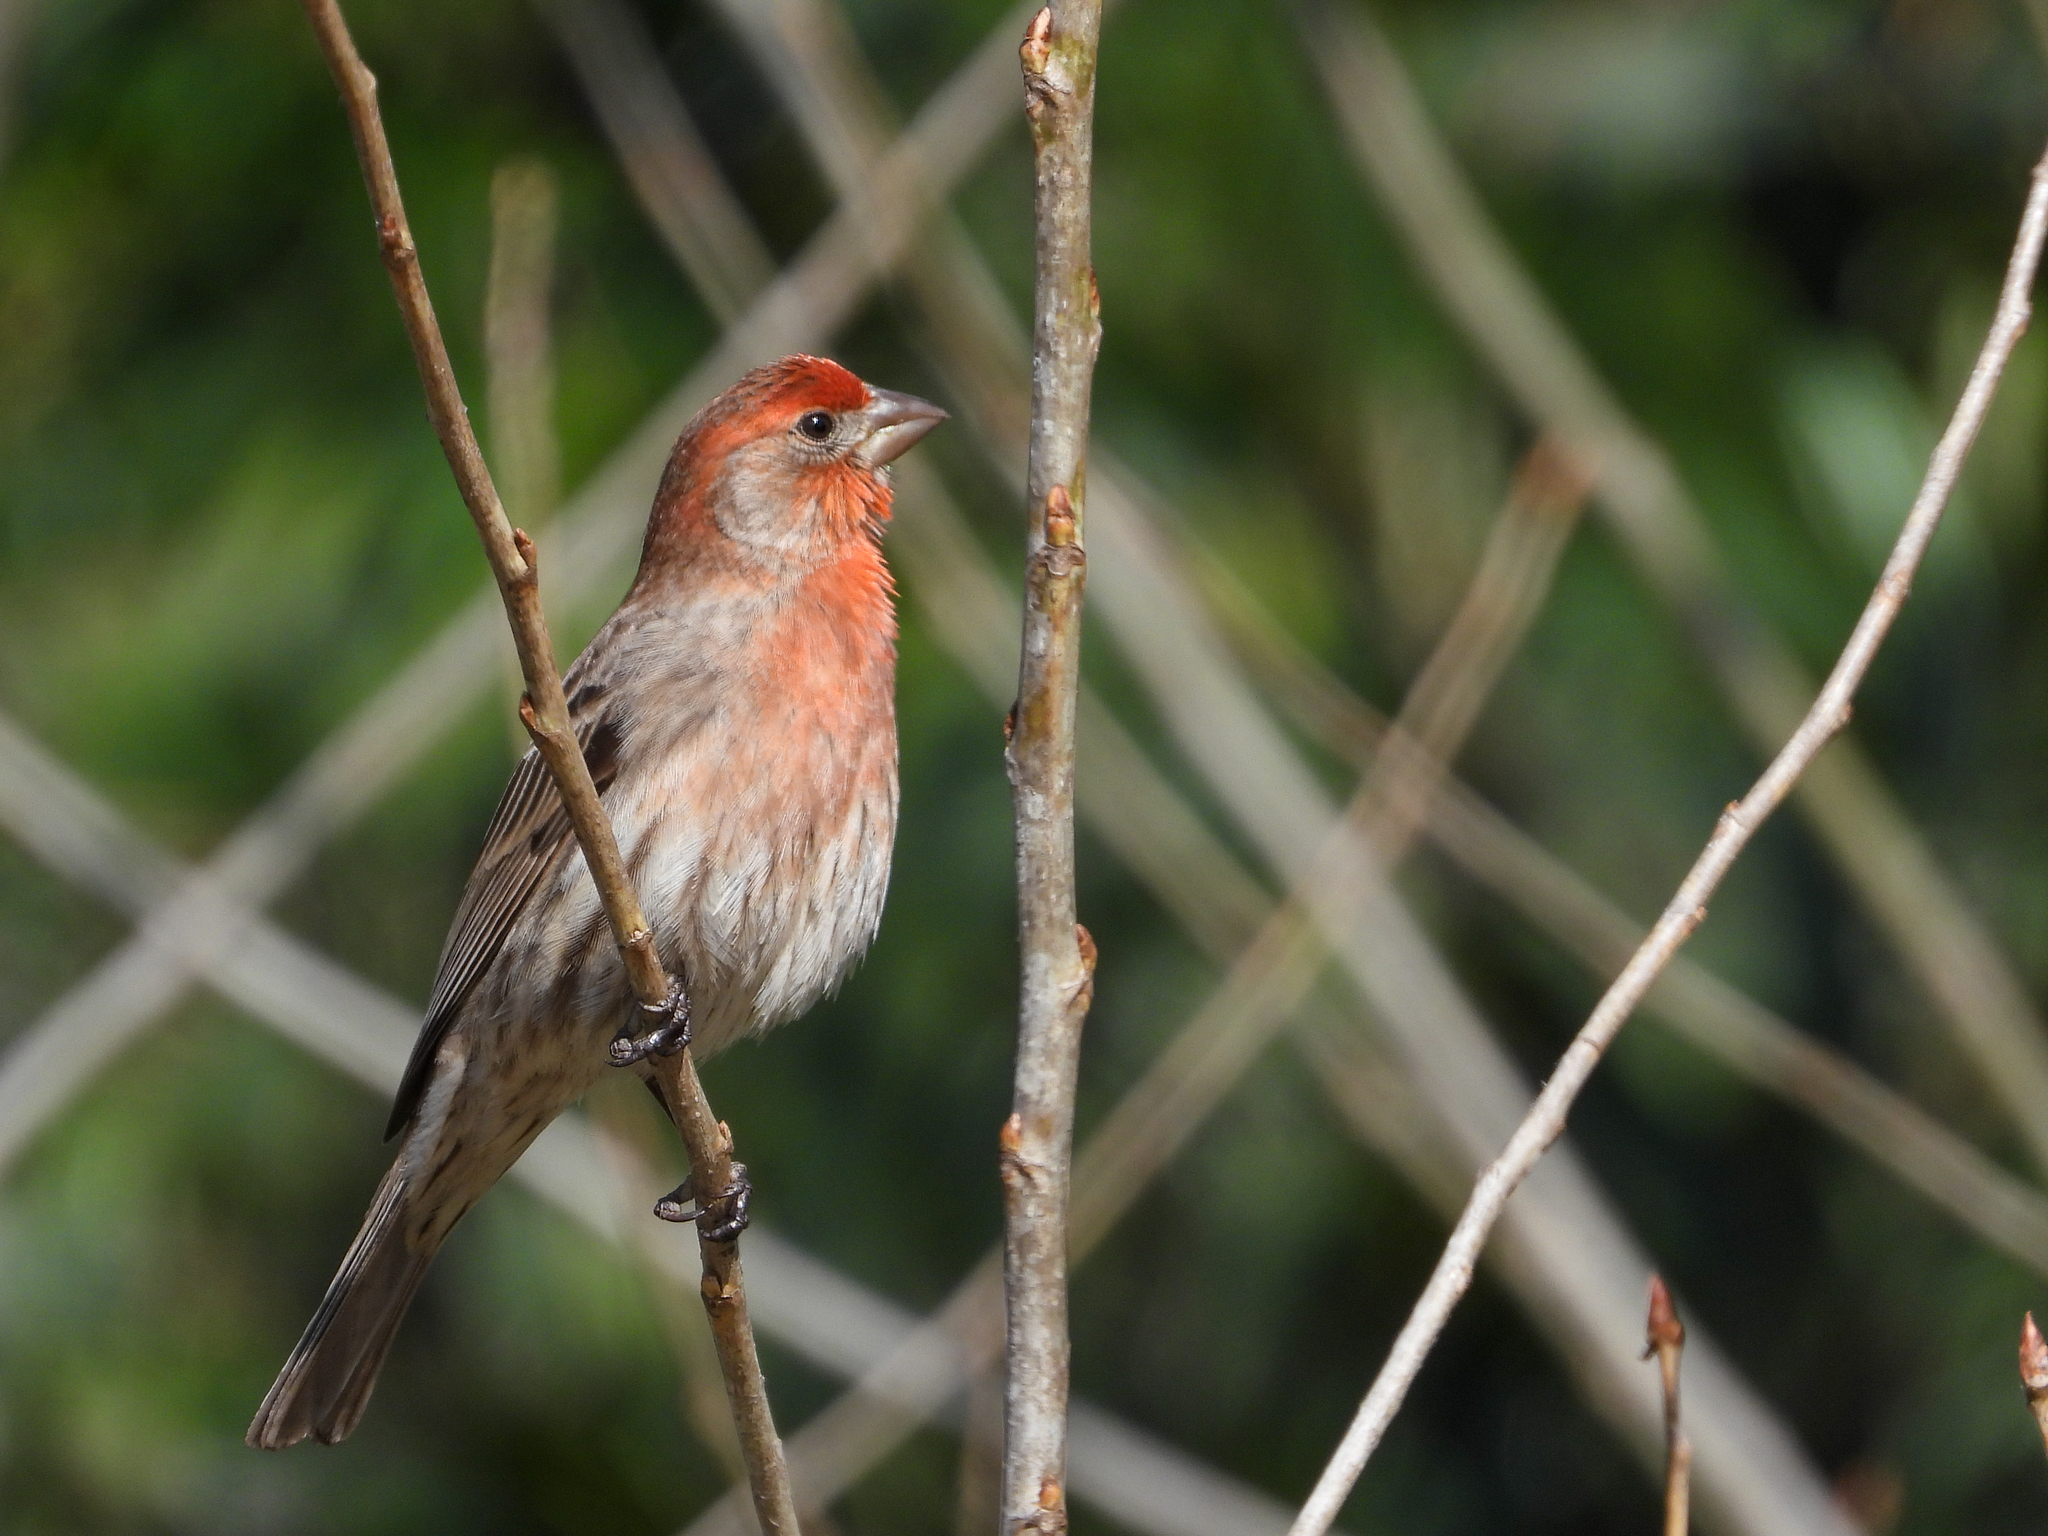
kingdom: Animalia
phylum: Chordata
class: Aves
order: Passeriformes
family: Fringillidae
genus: Haemorhous
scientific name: Haemorhous mexicanus
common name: House finch
